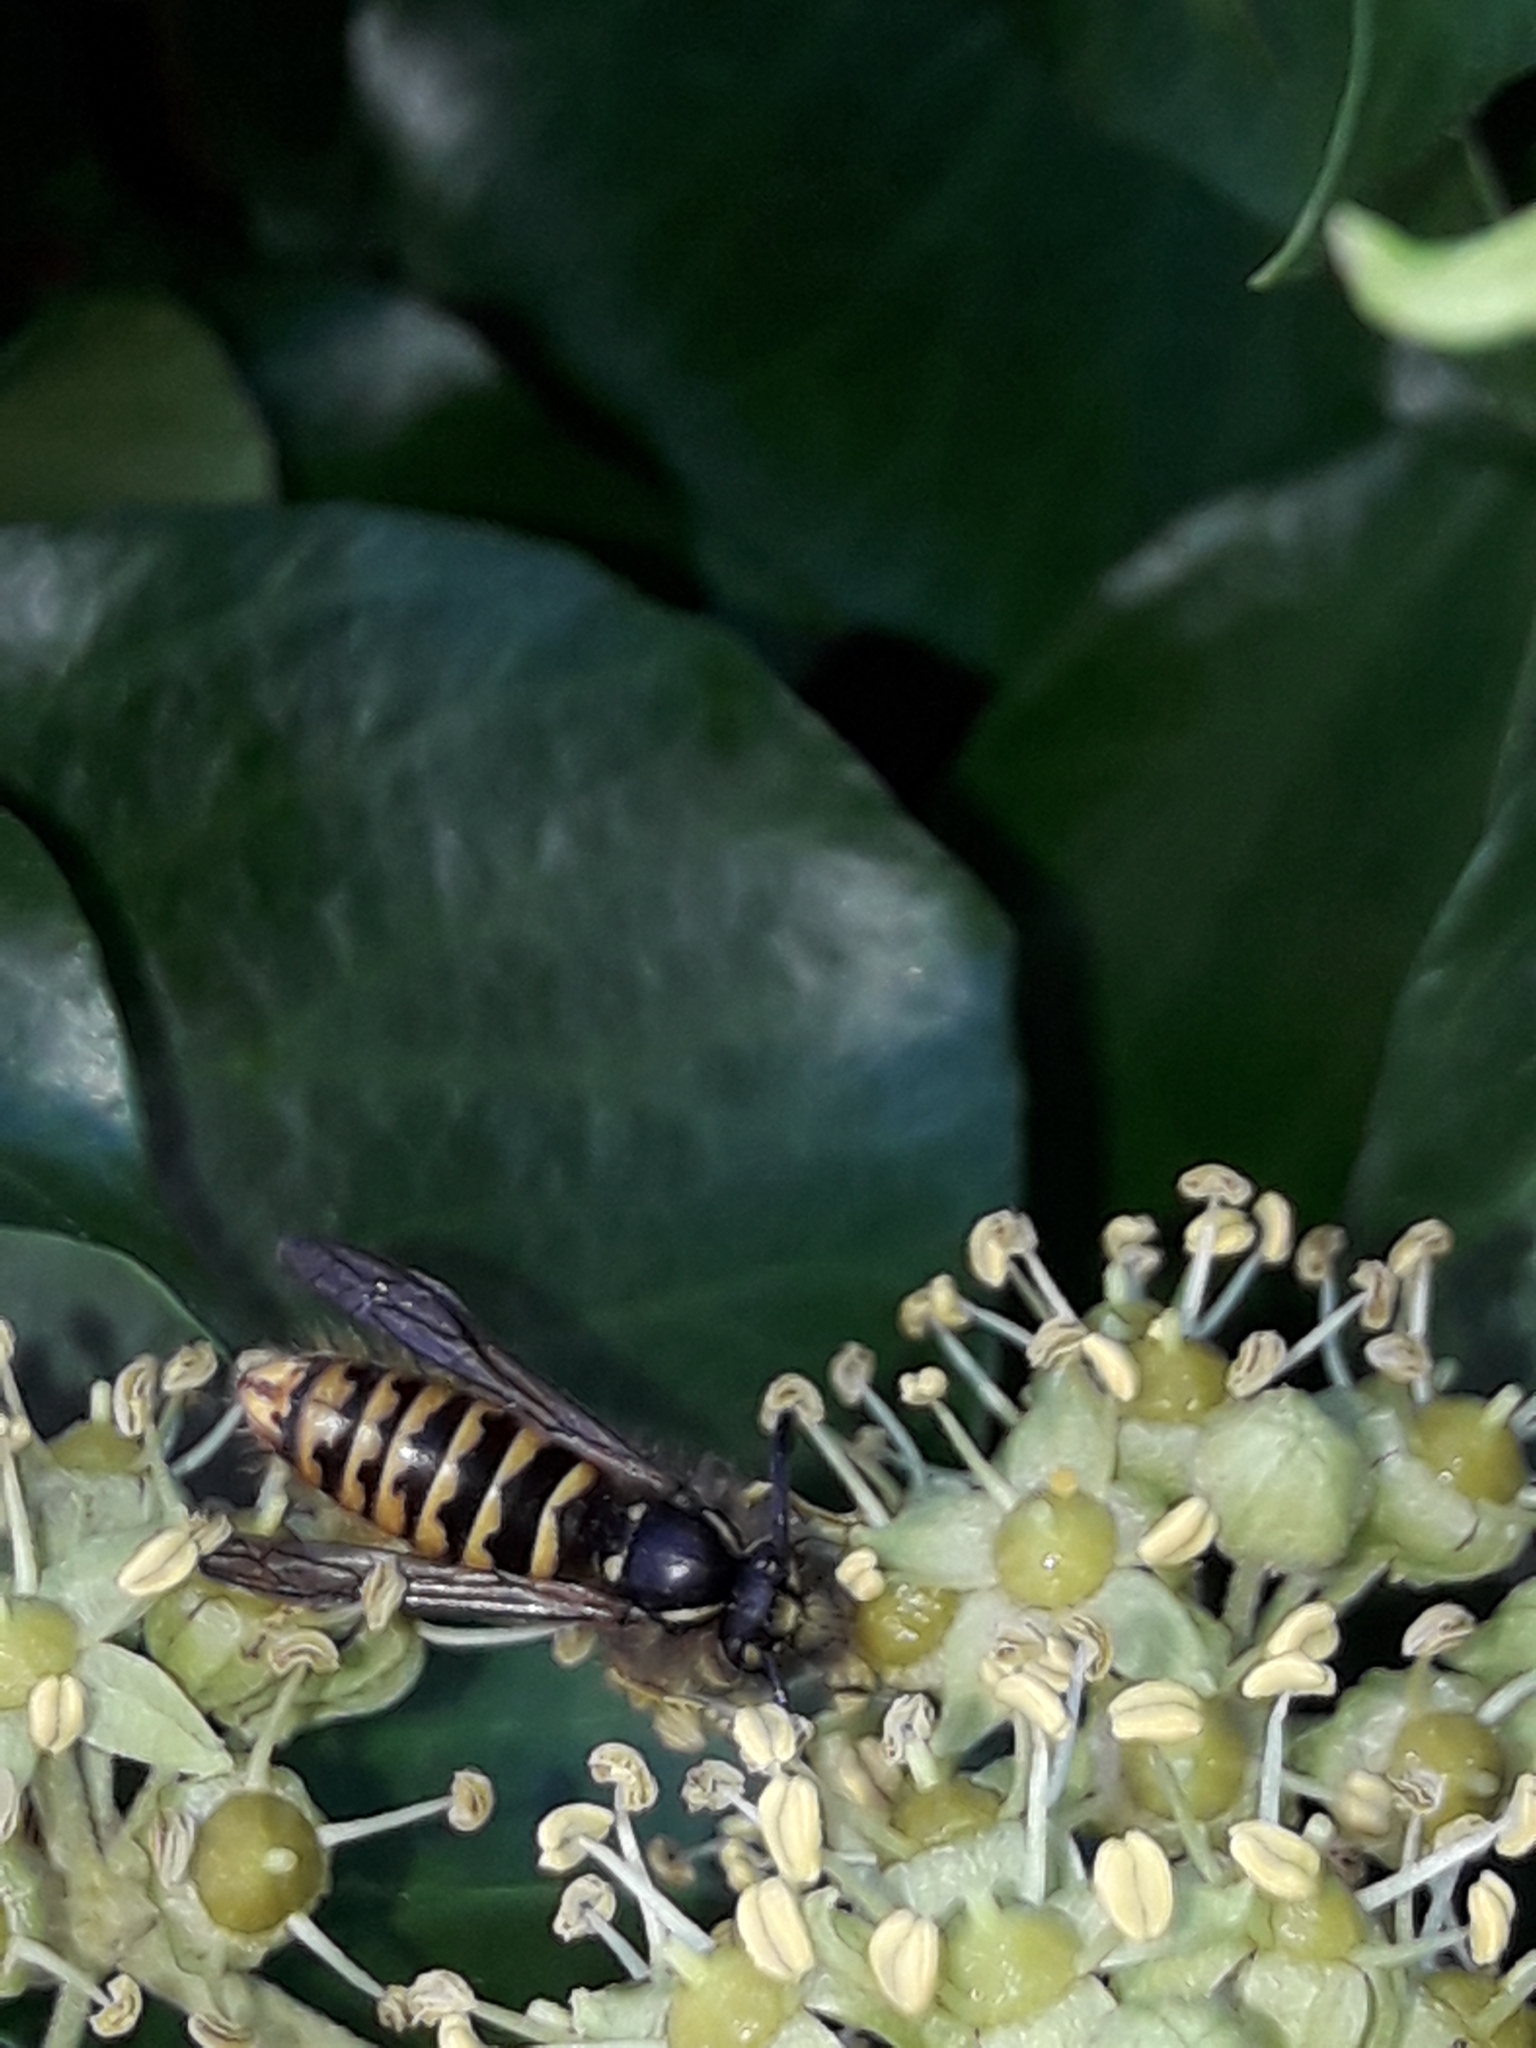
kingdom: Animalia
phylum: Arthropoda
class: Insecta
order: Hymenoptera
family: Vespidae
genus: Vespula
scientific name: Vespula vulgaris
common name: Common wasp
